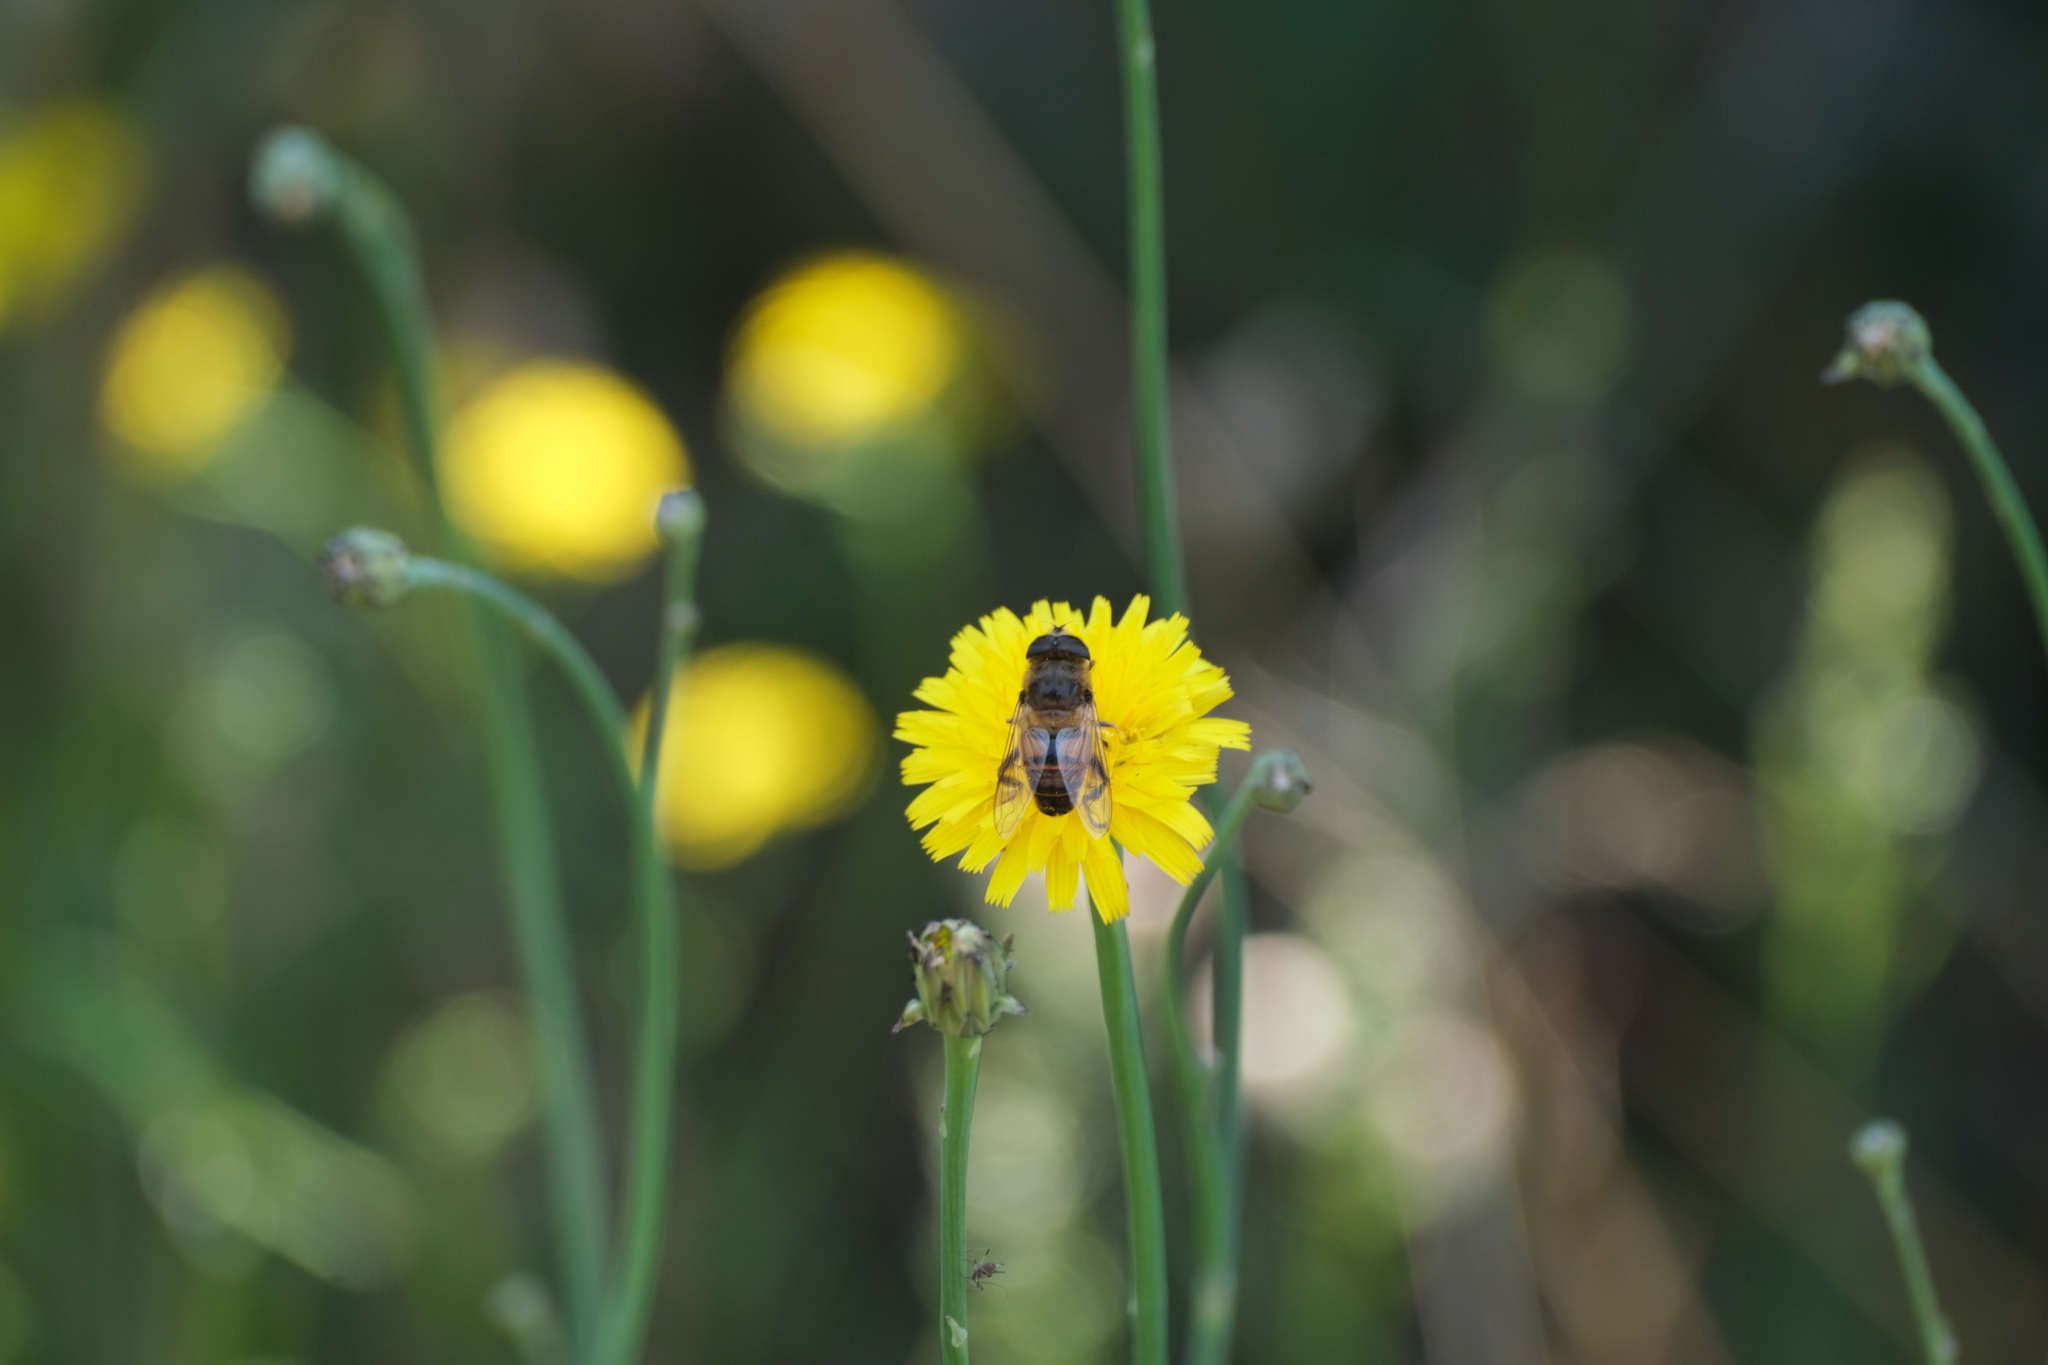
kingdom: Animalia
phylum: Arthropoda
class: Insecta
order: Diptera
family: Syrphidae
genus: Eristalis
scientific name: Eristalis tenax
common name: Drone fly
